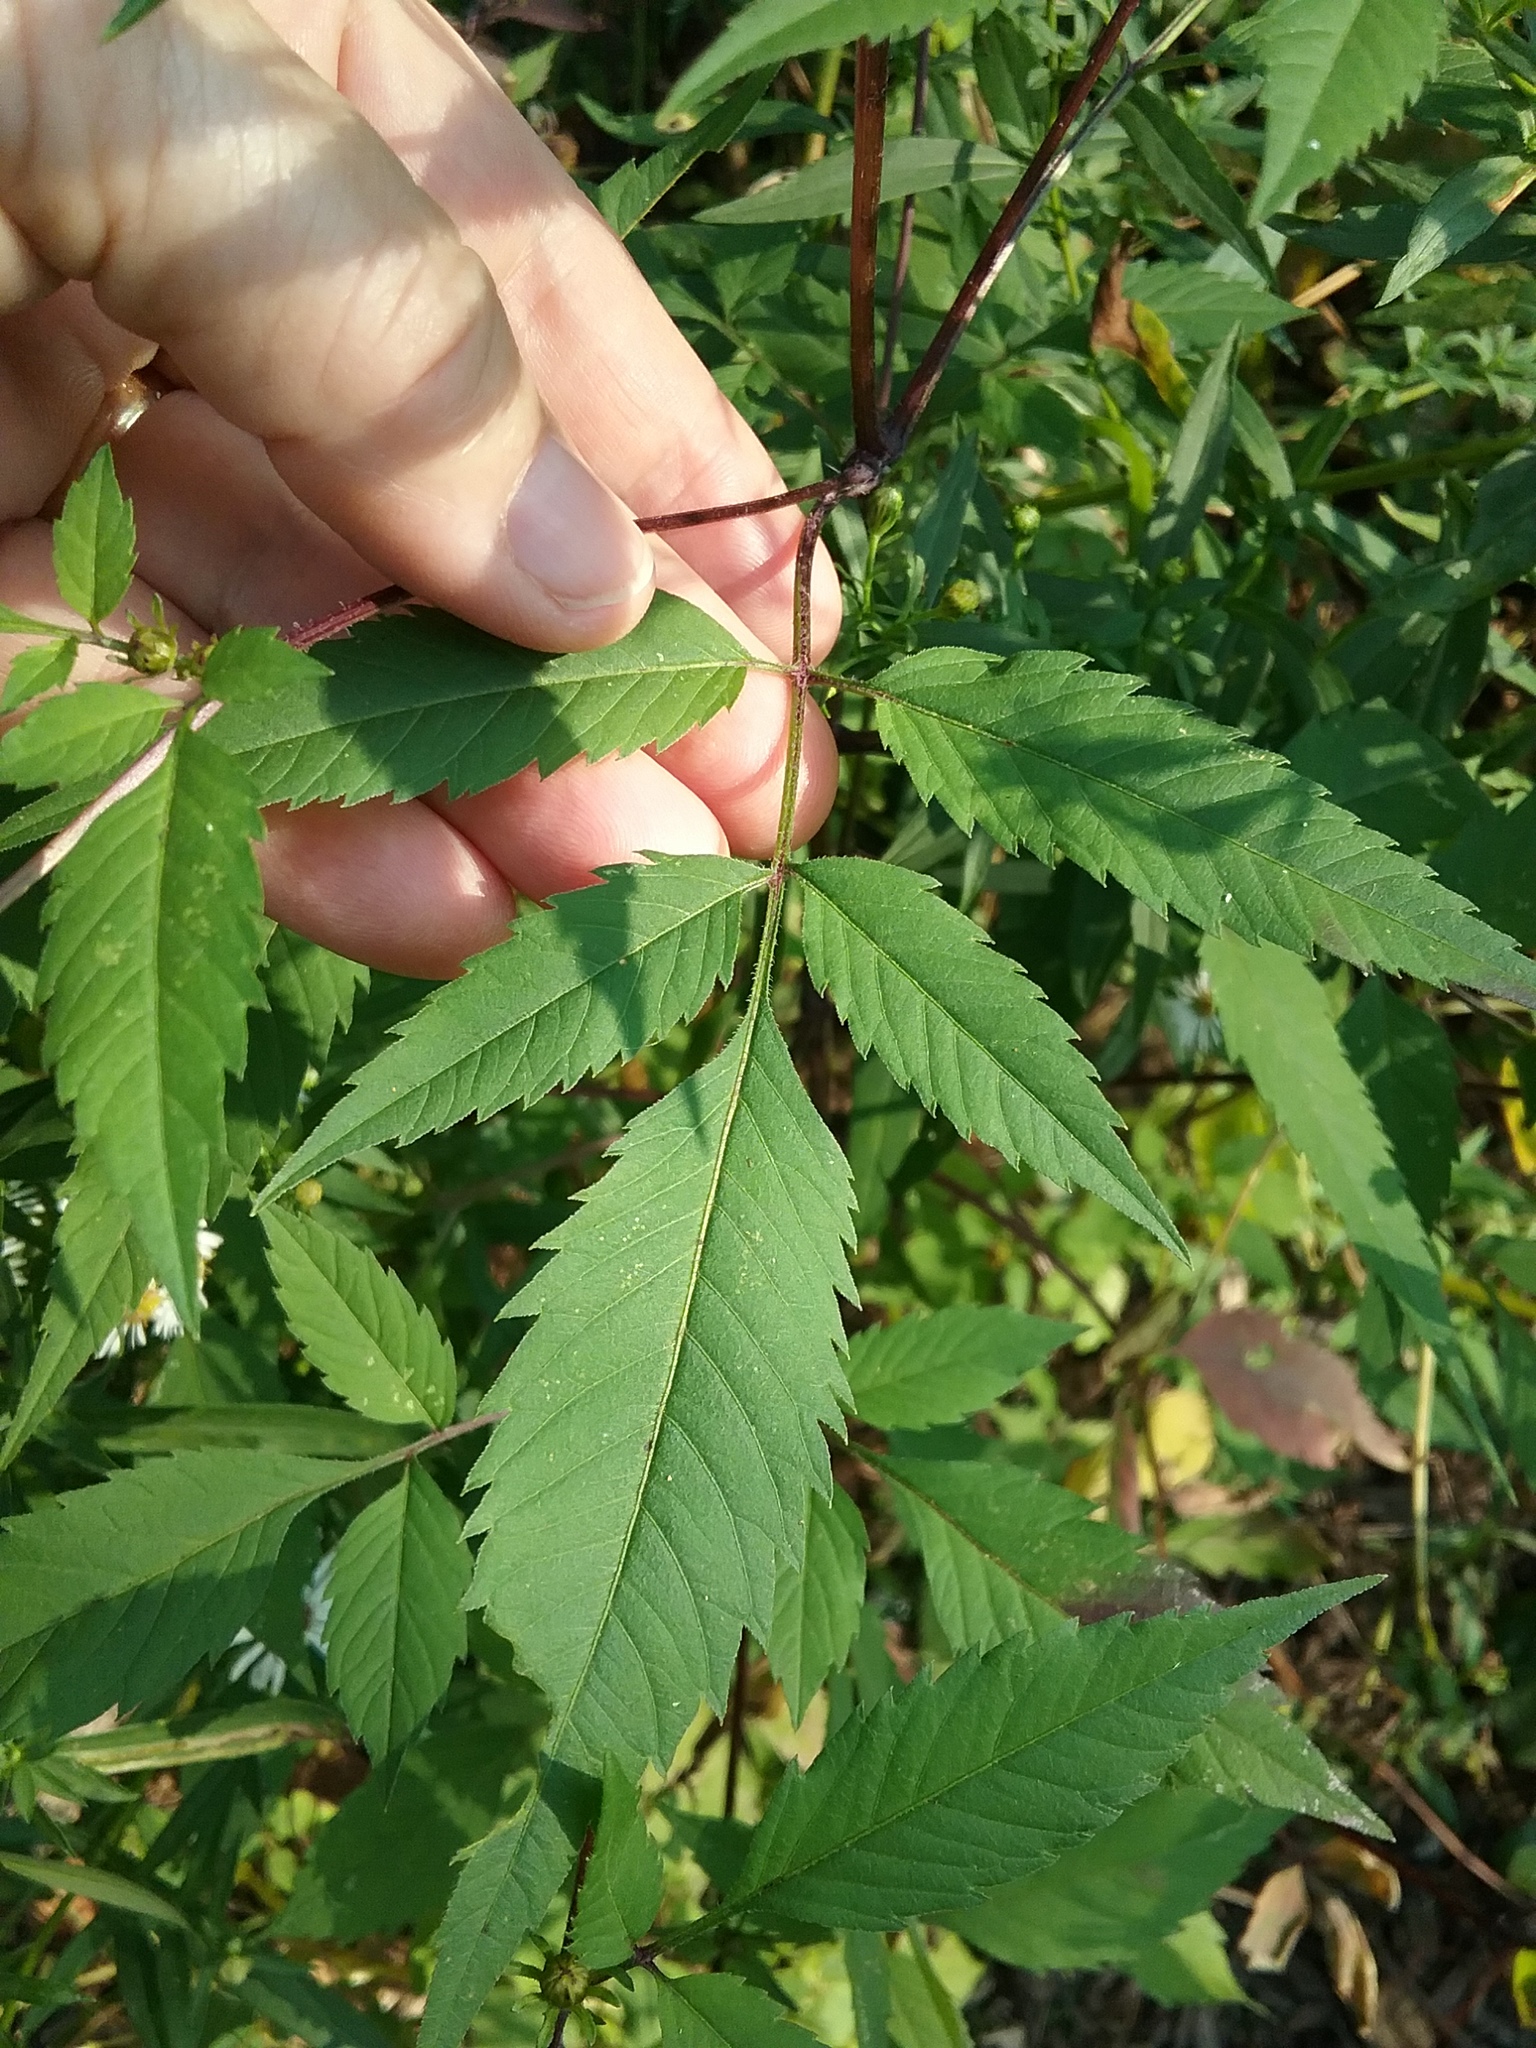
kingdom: Plantae
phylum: Tracheophyta
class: Magnoliopsida
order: Asterales
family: Asteraceae
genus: Bidens
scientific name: Bidens frondosa
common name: Beggarticks
